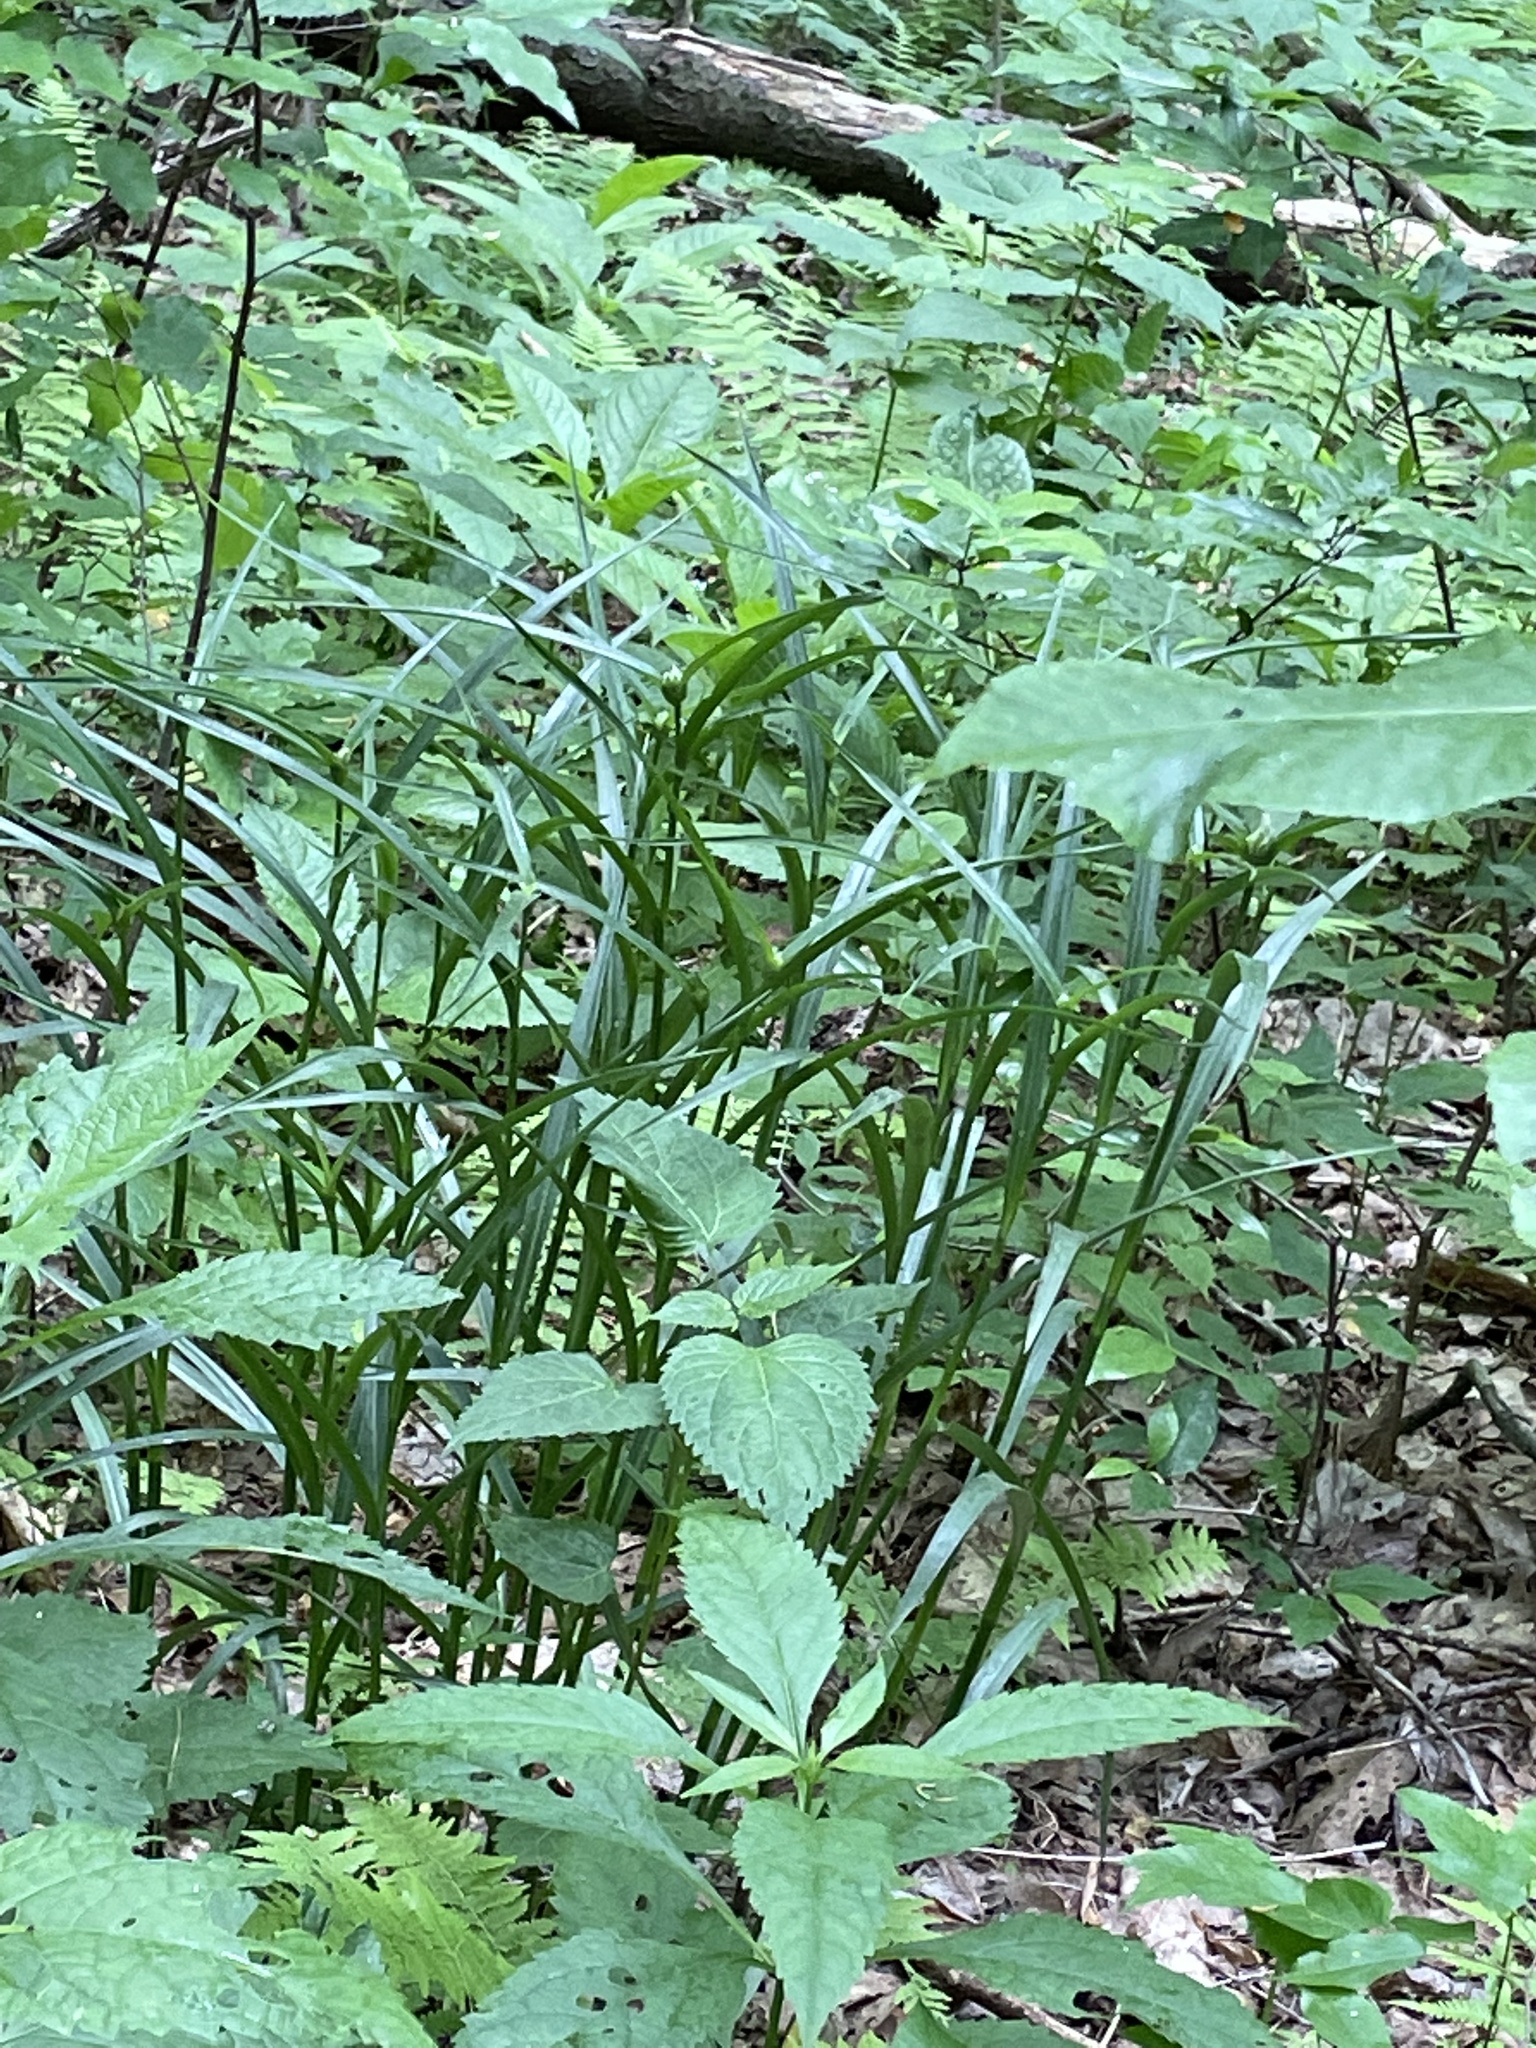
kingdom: Plantae
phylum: Tracheophyta
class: Liliopsida
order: Commelinales
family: Commelinaceae
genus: Tradescantia
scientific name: Tradescantia subaspera
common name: Wide-leaf spiderwort
